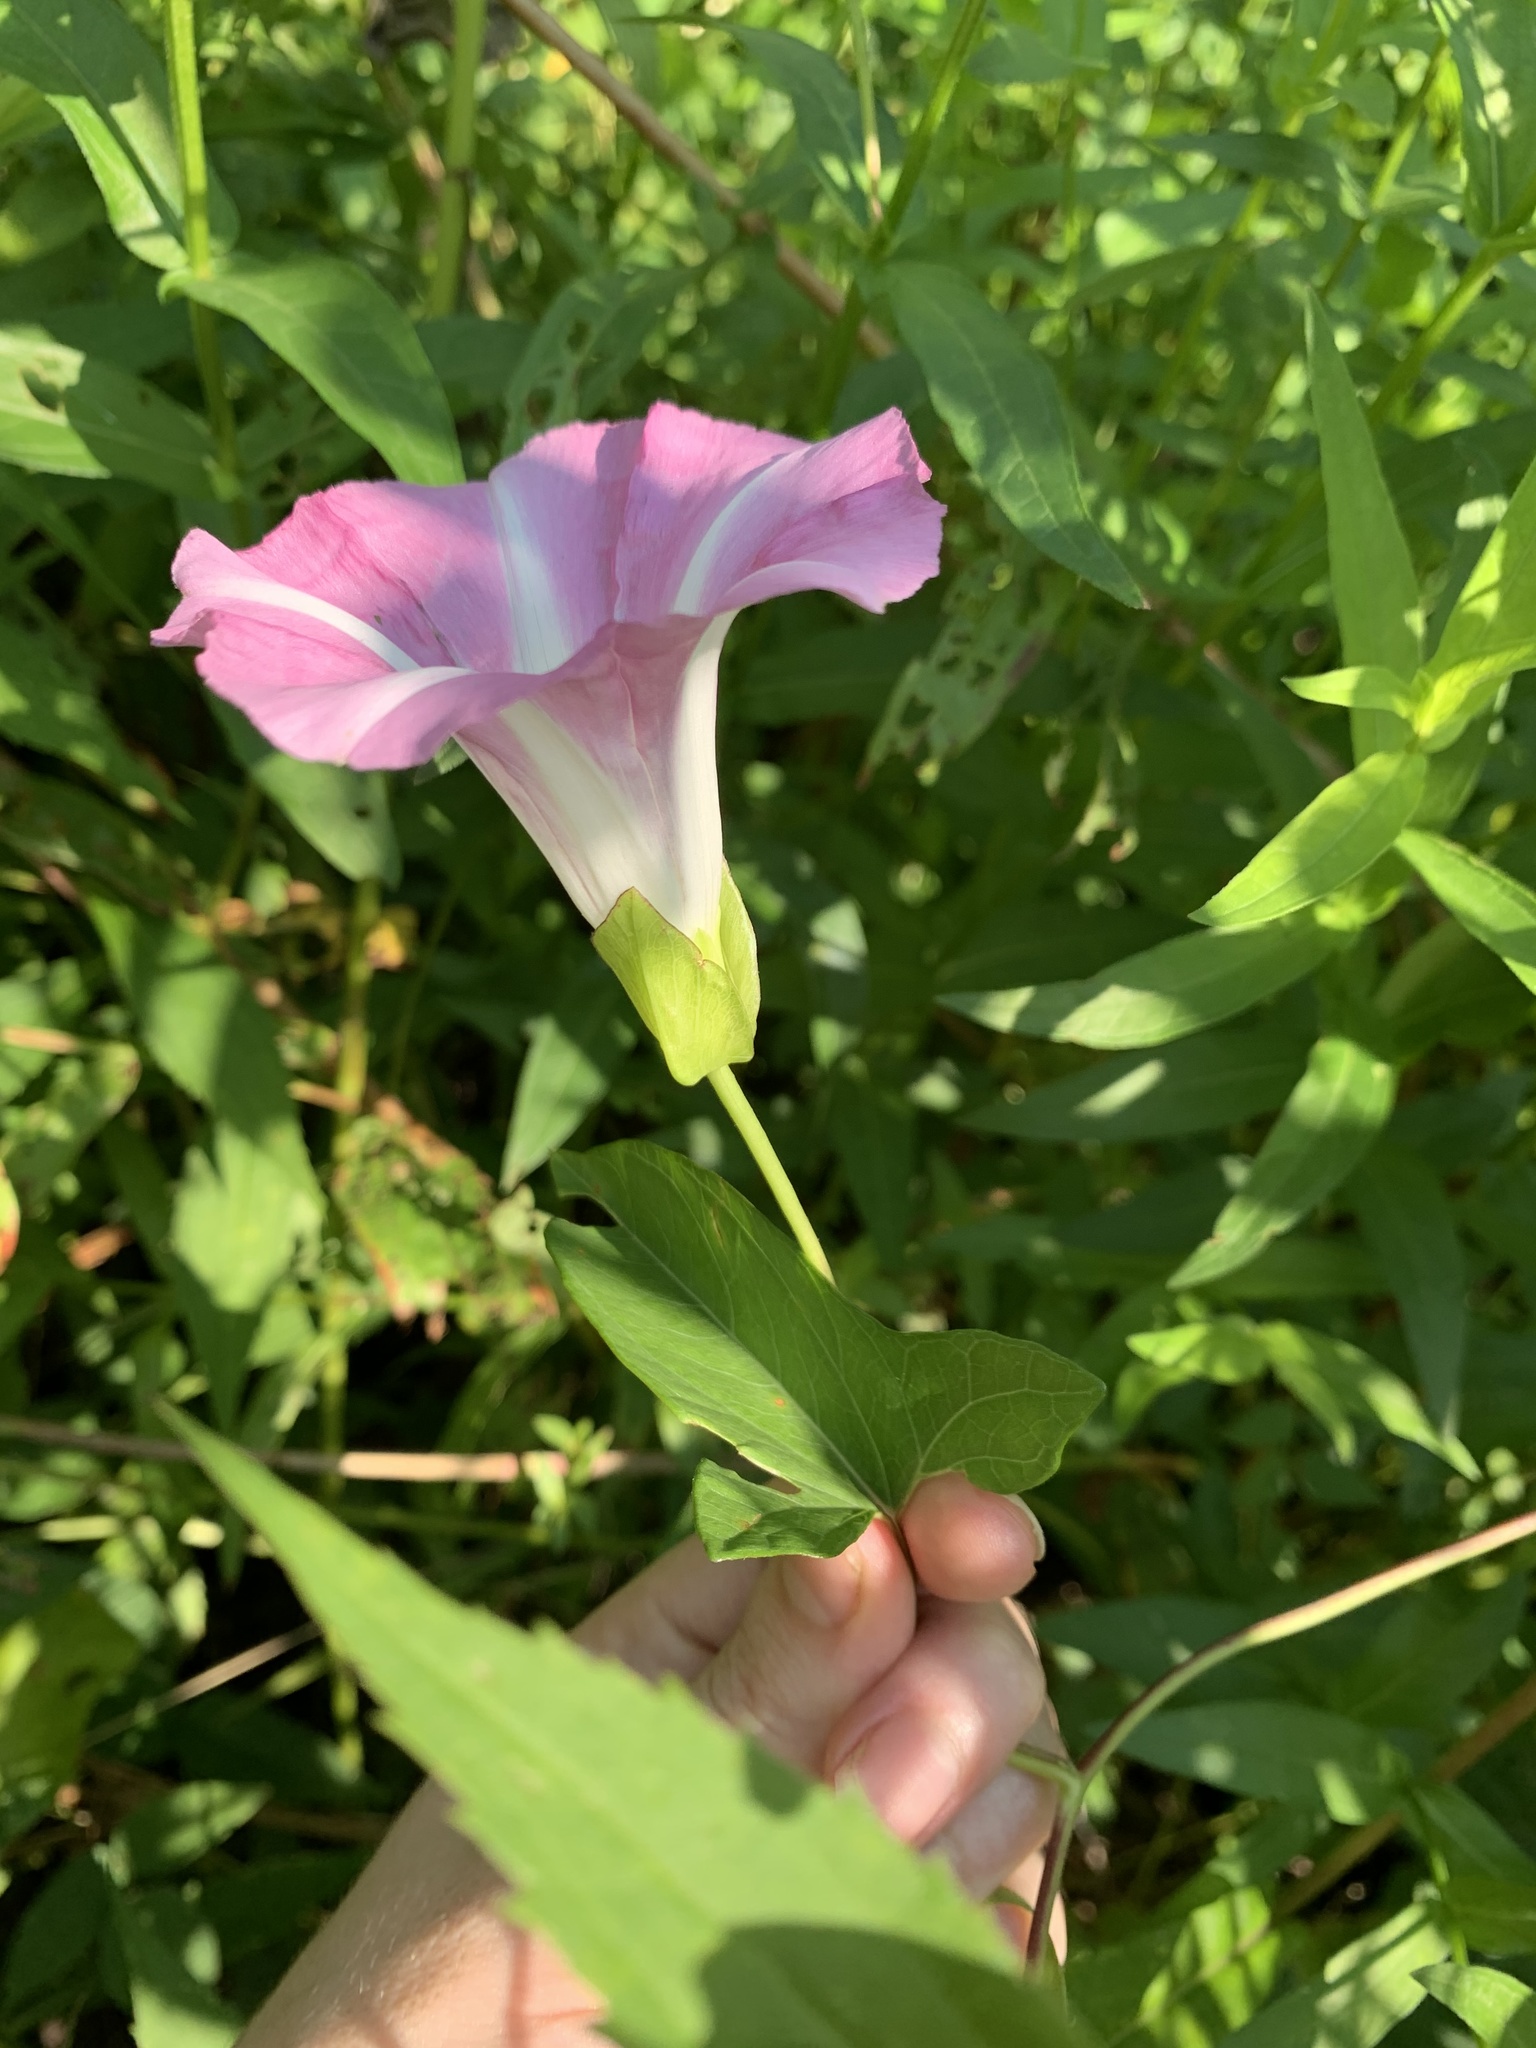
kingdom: Plantae
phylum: Tracheophyta
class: Magnoliopsida
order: Solanales
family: Convolvulaceae
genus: Calystegia
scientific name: Calystegia sepium
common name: Hedge bindweed
